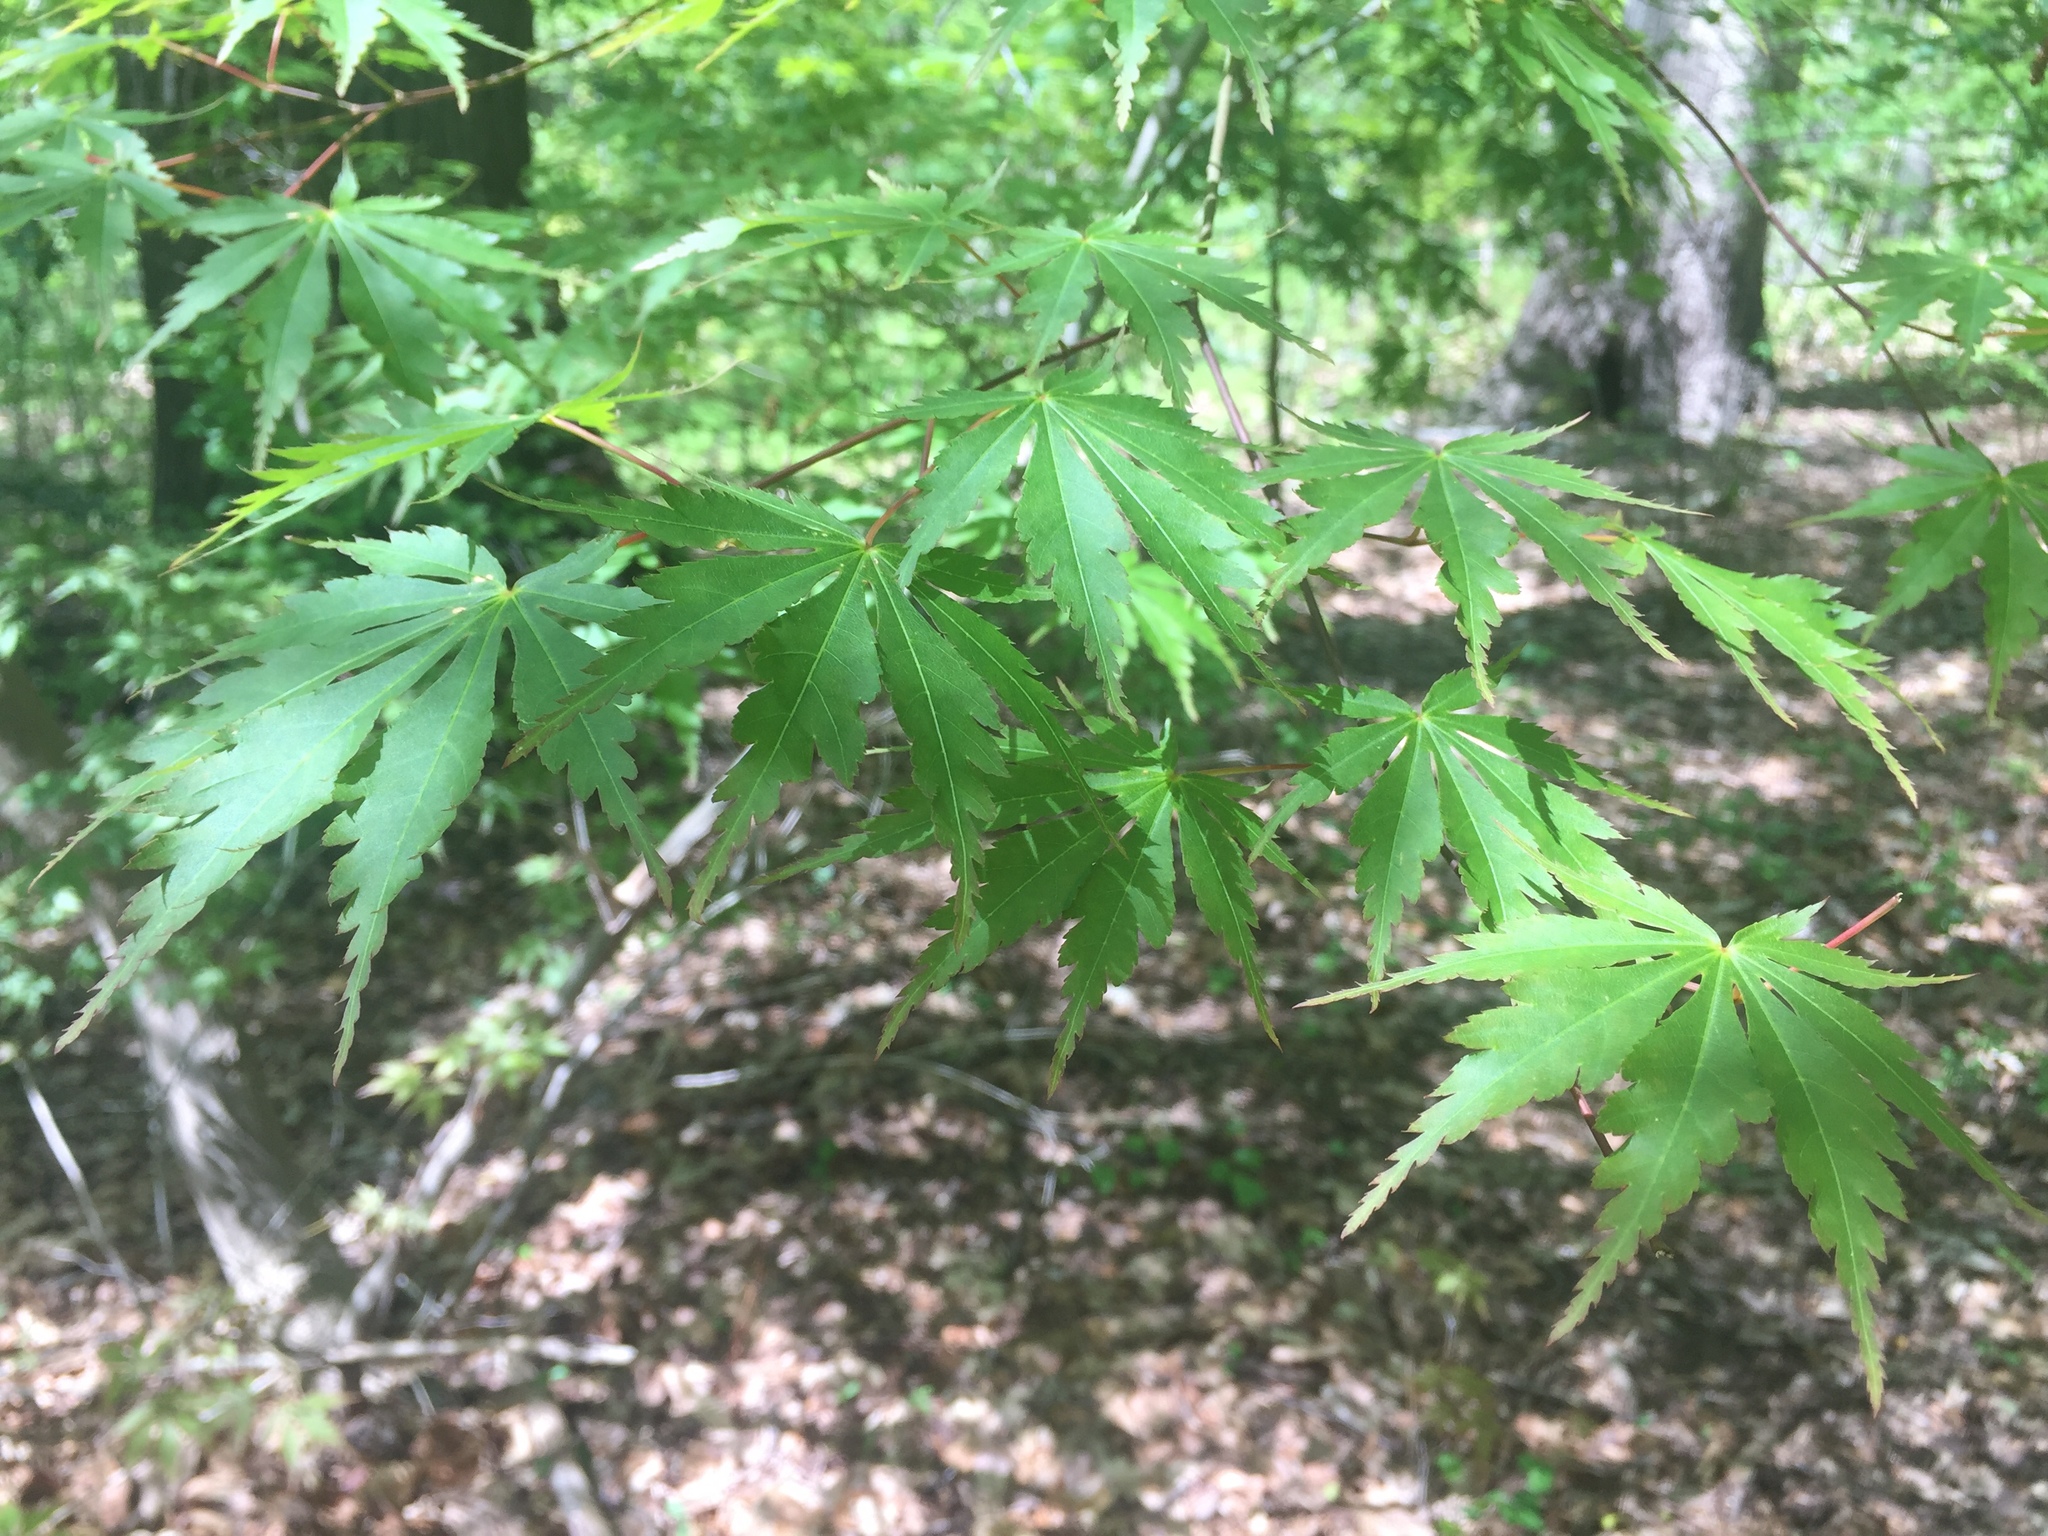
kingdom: Plantae
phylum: Tracheophyta
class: Magnoliopsida
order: Sapindales
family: Sapindaceae
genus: Acer
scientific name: Acer palmatum
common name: Japanese maple
